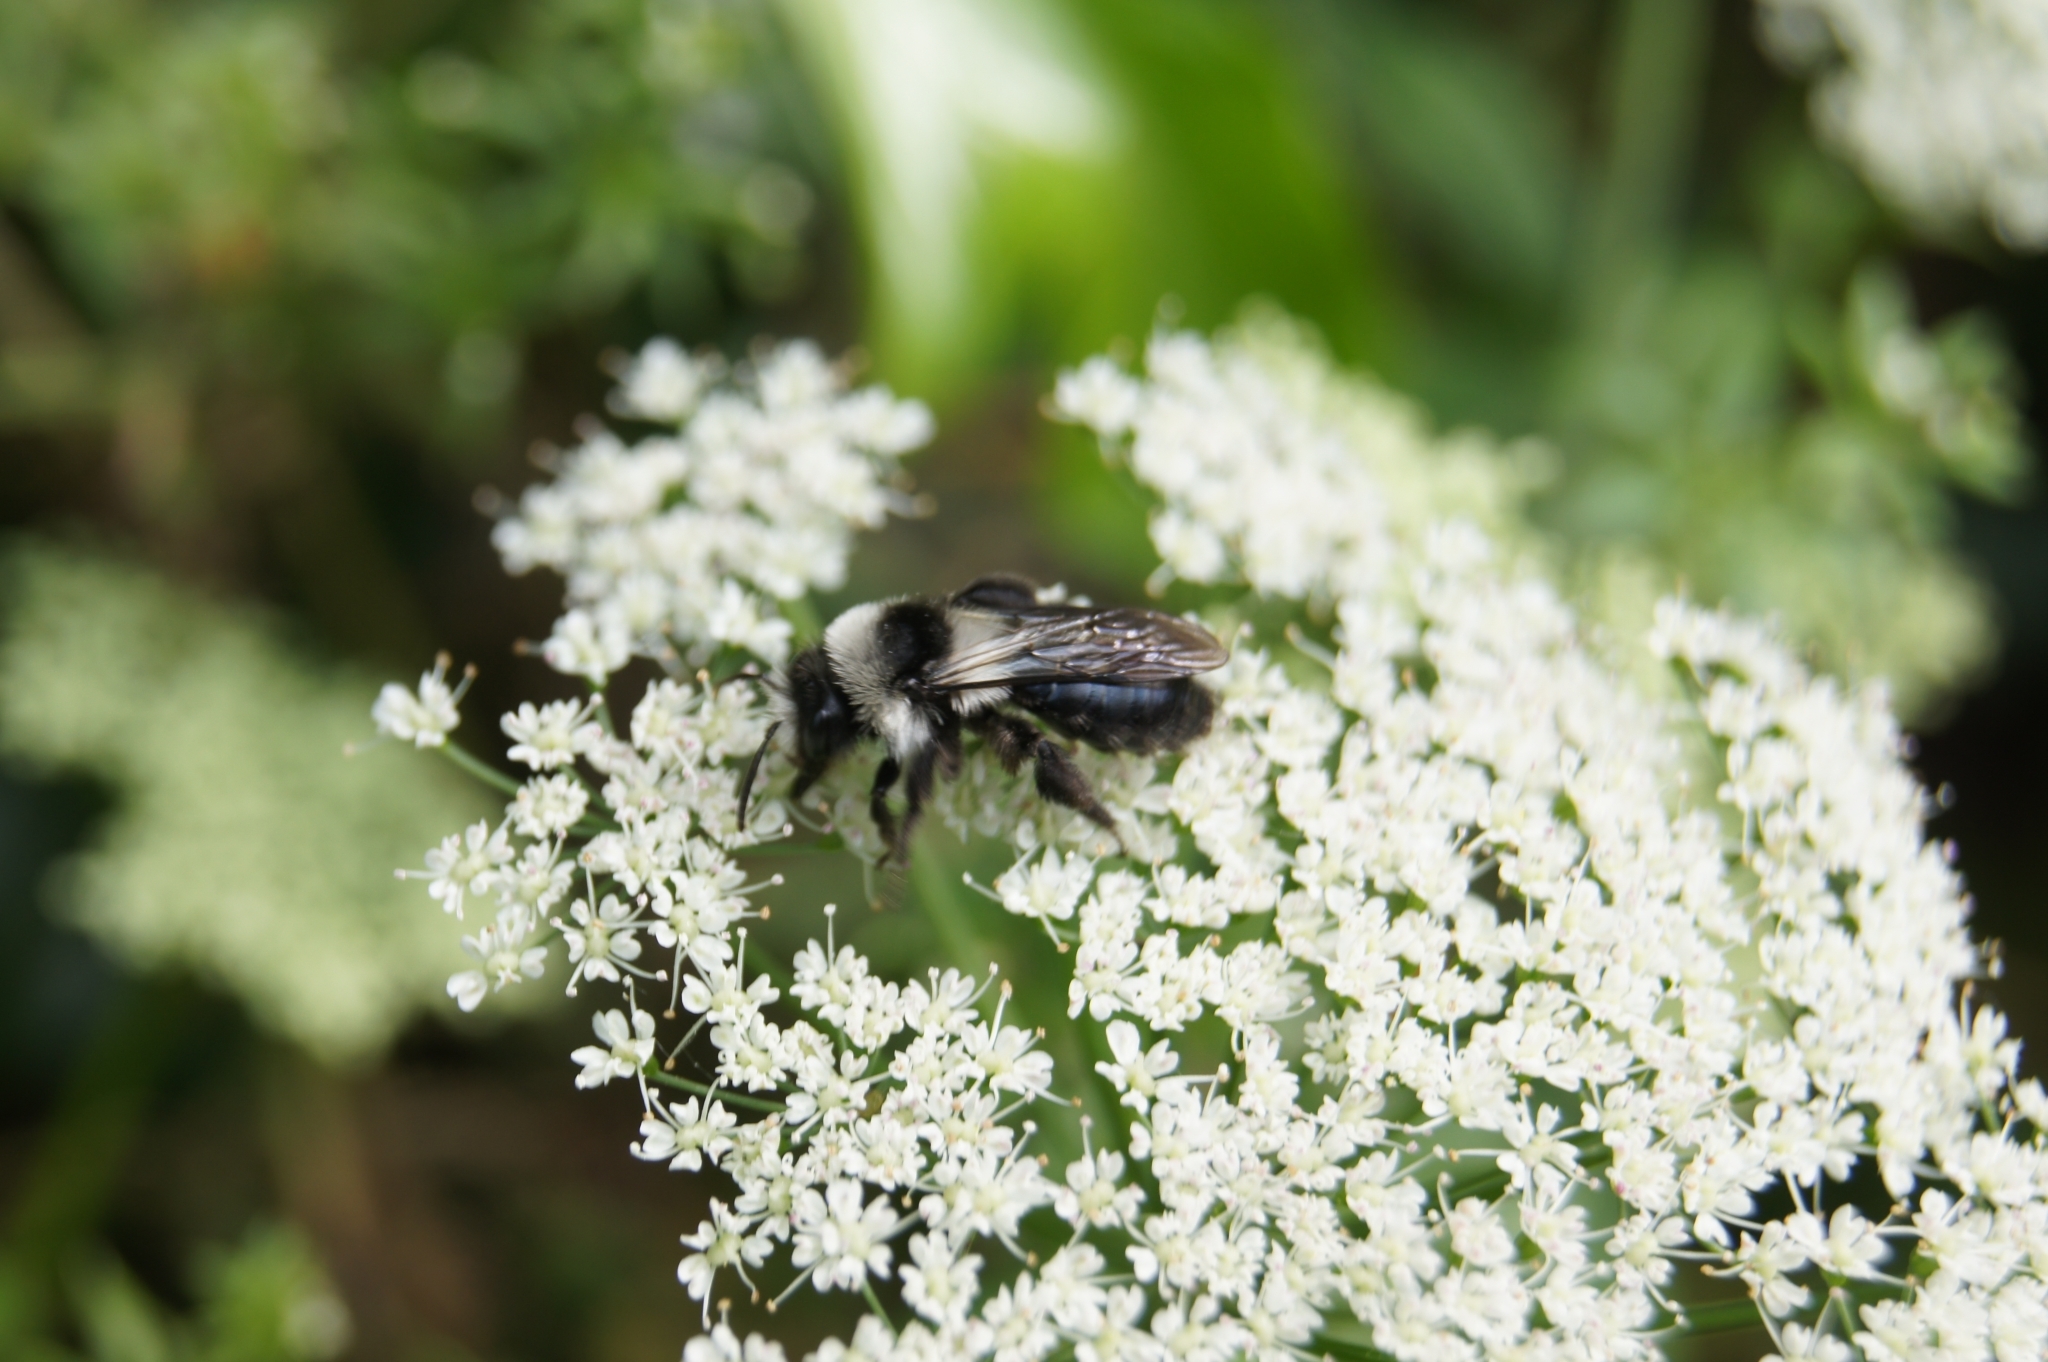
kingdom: Animalia
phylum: Arthropoda
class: Insecta
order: Hymenoptera
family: Andrenidae
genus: Andrena
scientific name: Andrena cineraria
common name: Ashy mining bee
